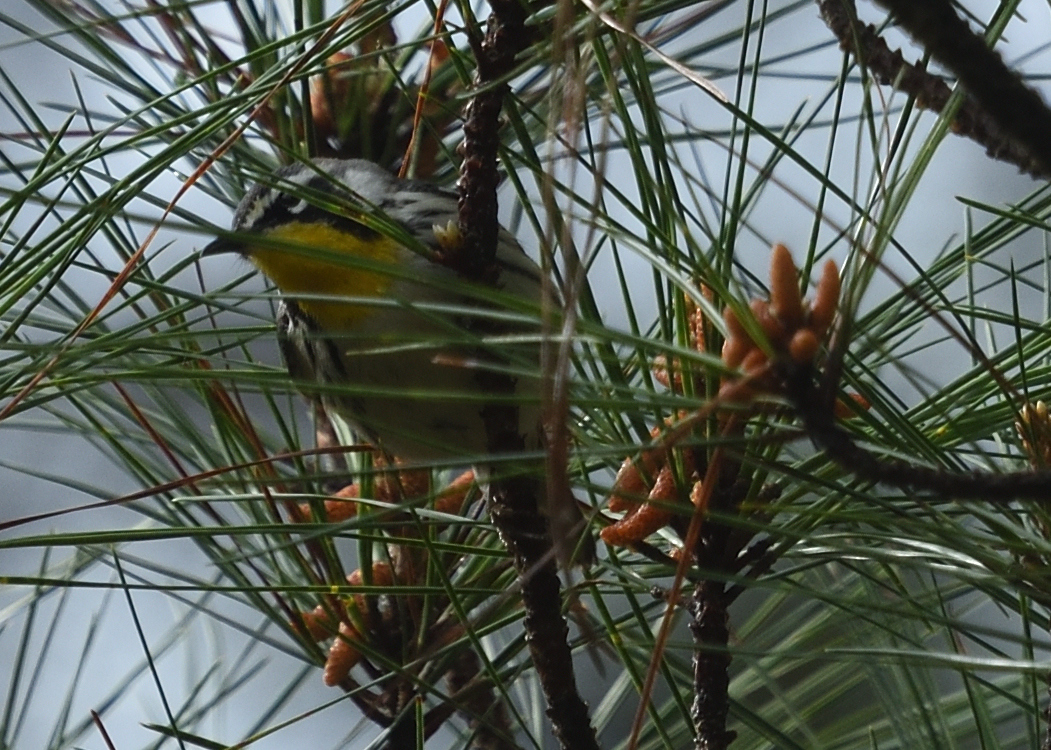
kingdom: Animalia
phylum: Chordata
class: Aves
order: Passeriformes
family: Parulidae
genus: Setophaga
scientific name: Setophaga dominica
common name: Yellow-throated warbler
